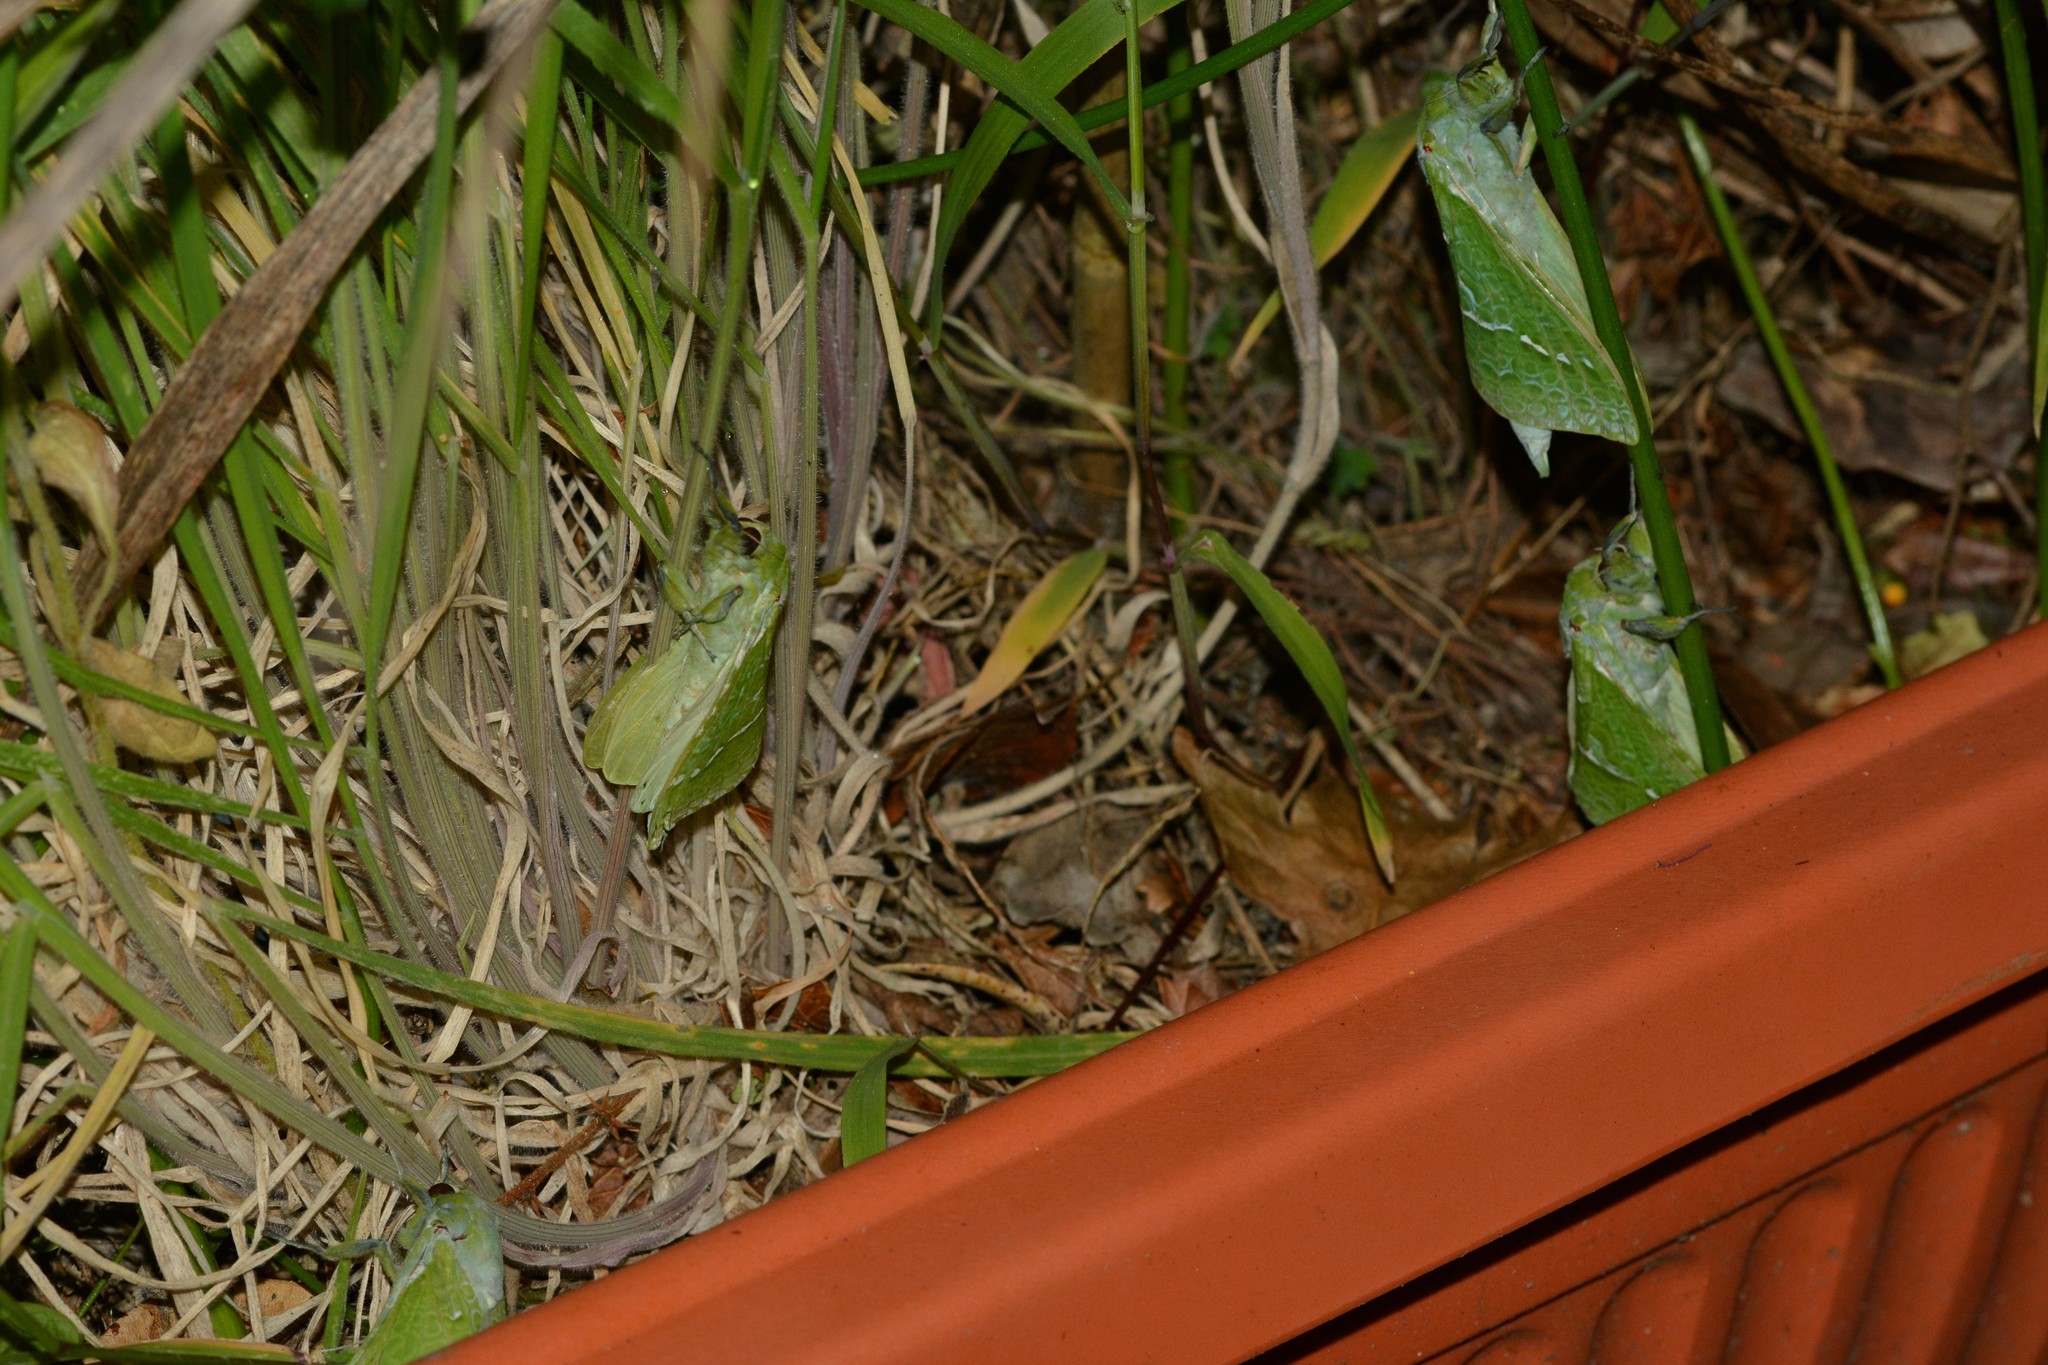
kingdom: Animalia
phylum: Arthropoda
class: Insecta
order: Lepidoptera
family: Hepialidae
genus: Aenetus
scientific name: Aenetus virescens
